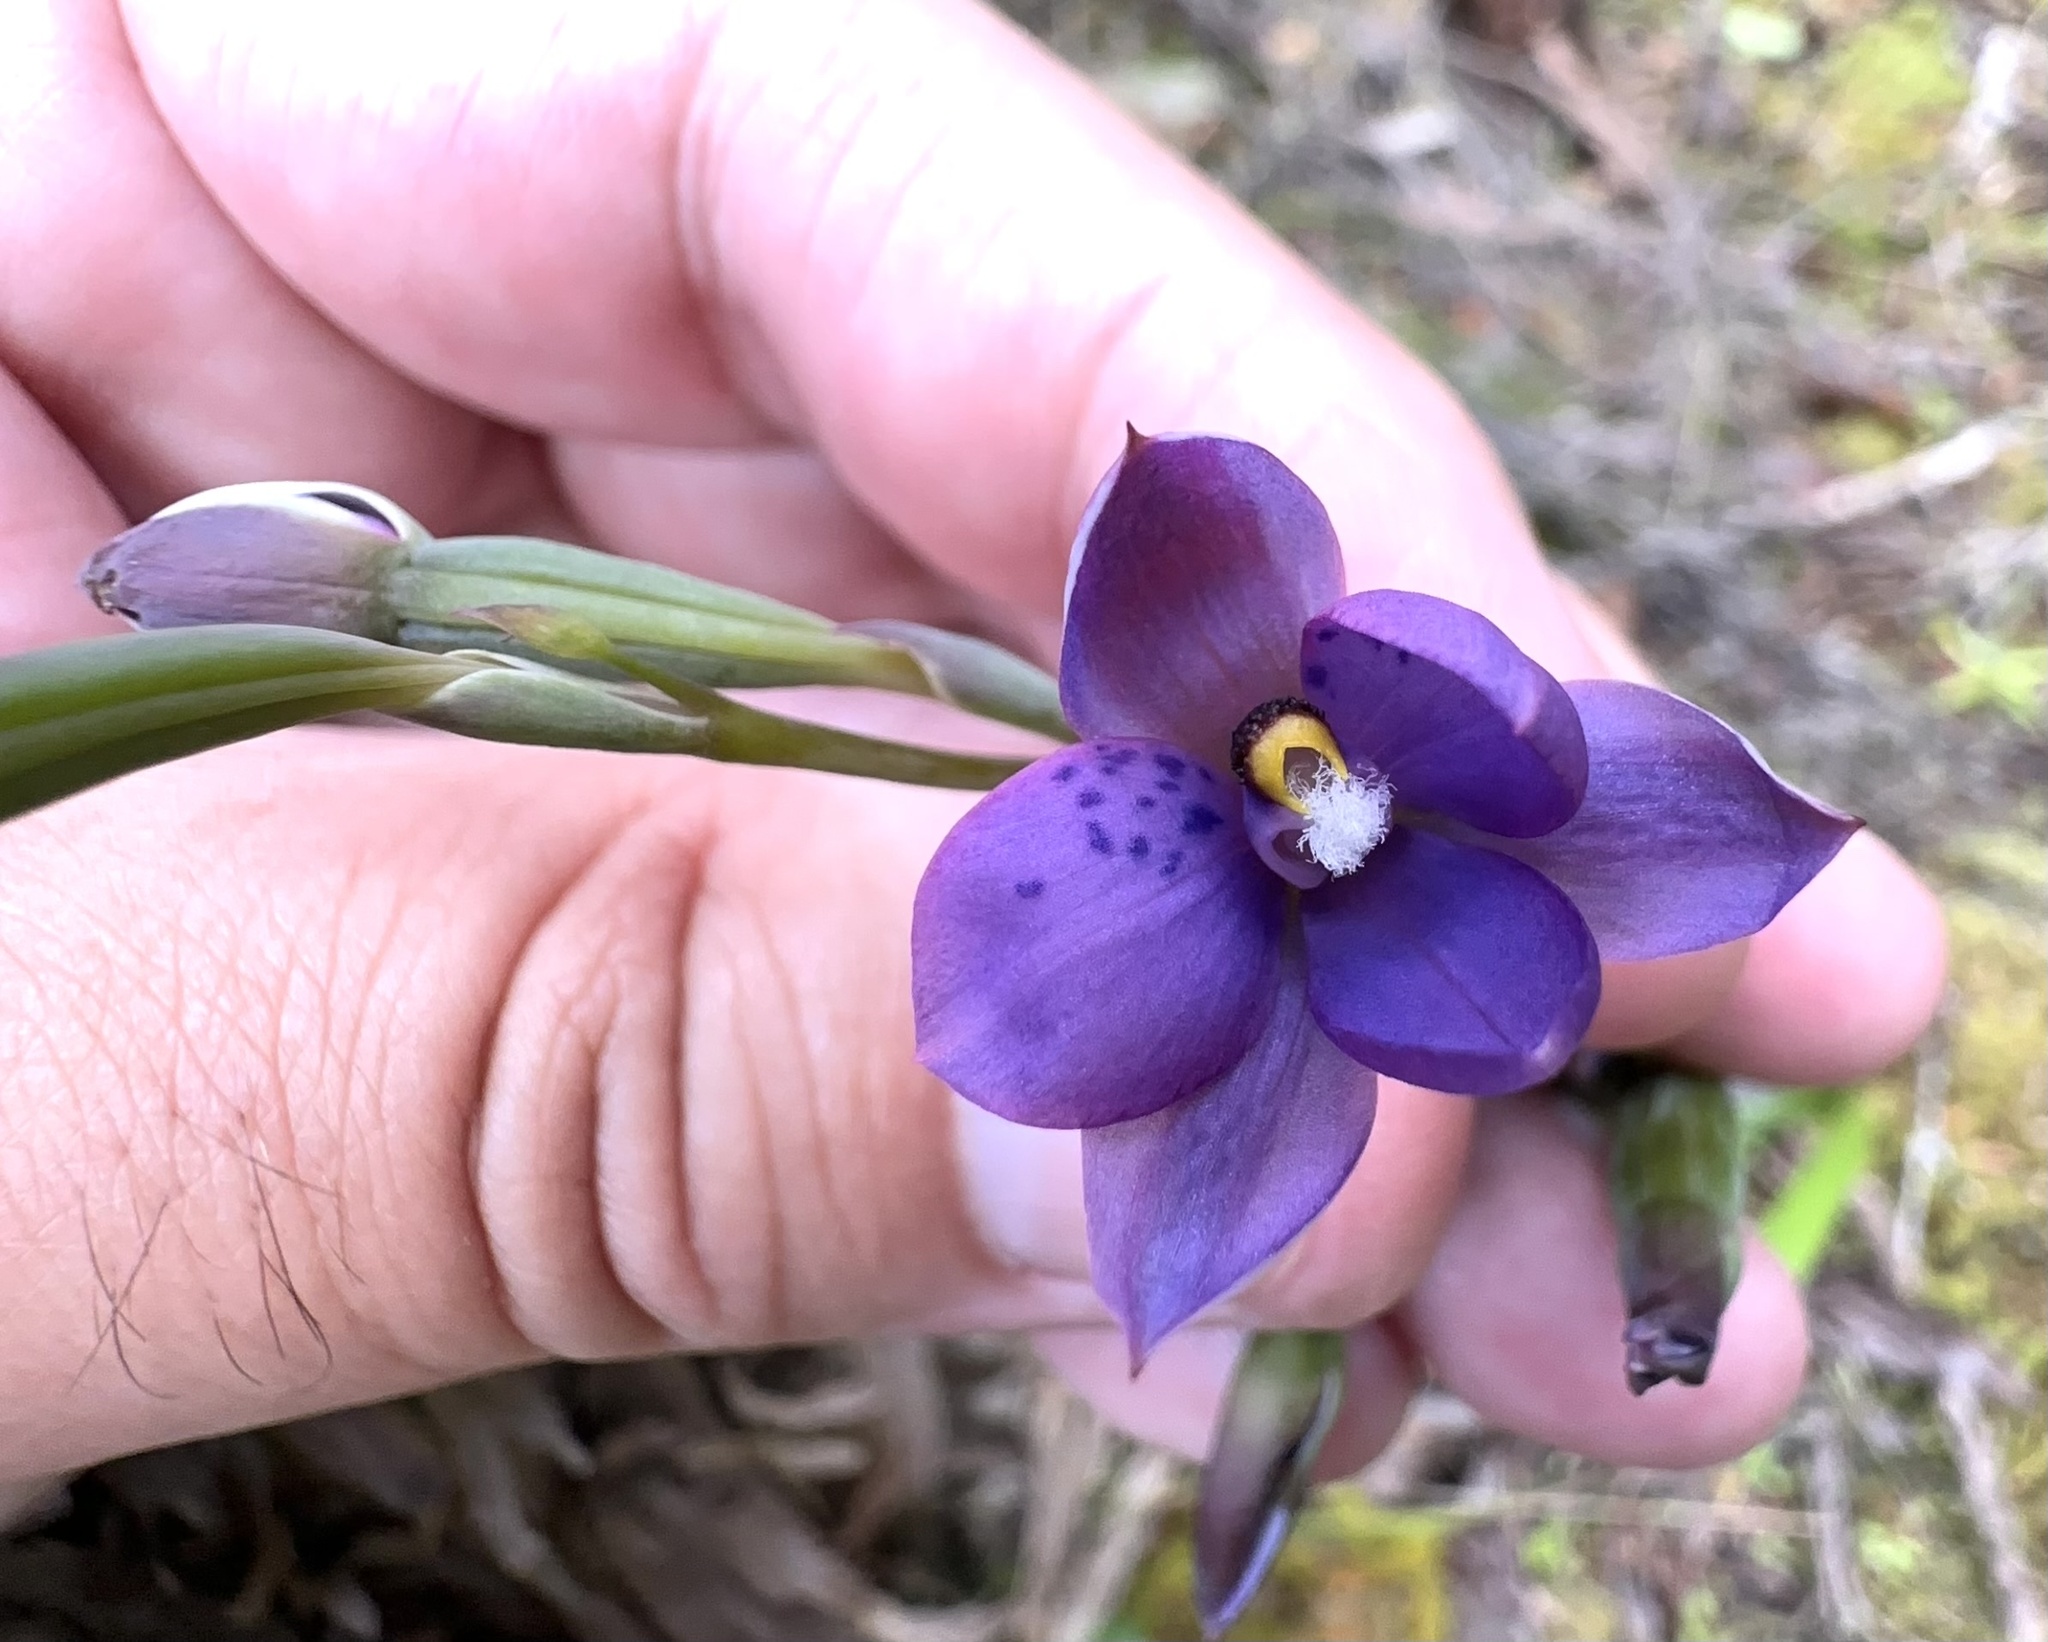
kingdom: Plantae
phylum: Tracheophyta
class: Liliopsida
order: Asparagales
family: Orchidaceae
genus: Thelymitra
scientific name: Thelymitra nervosa
